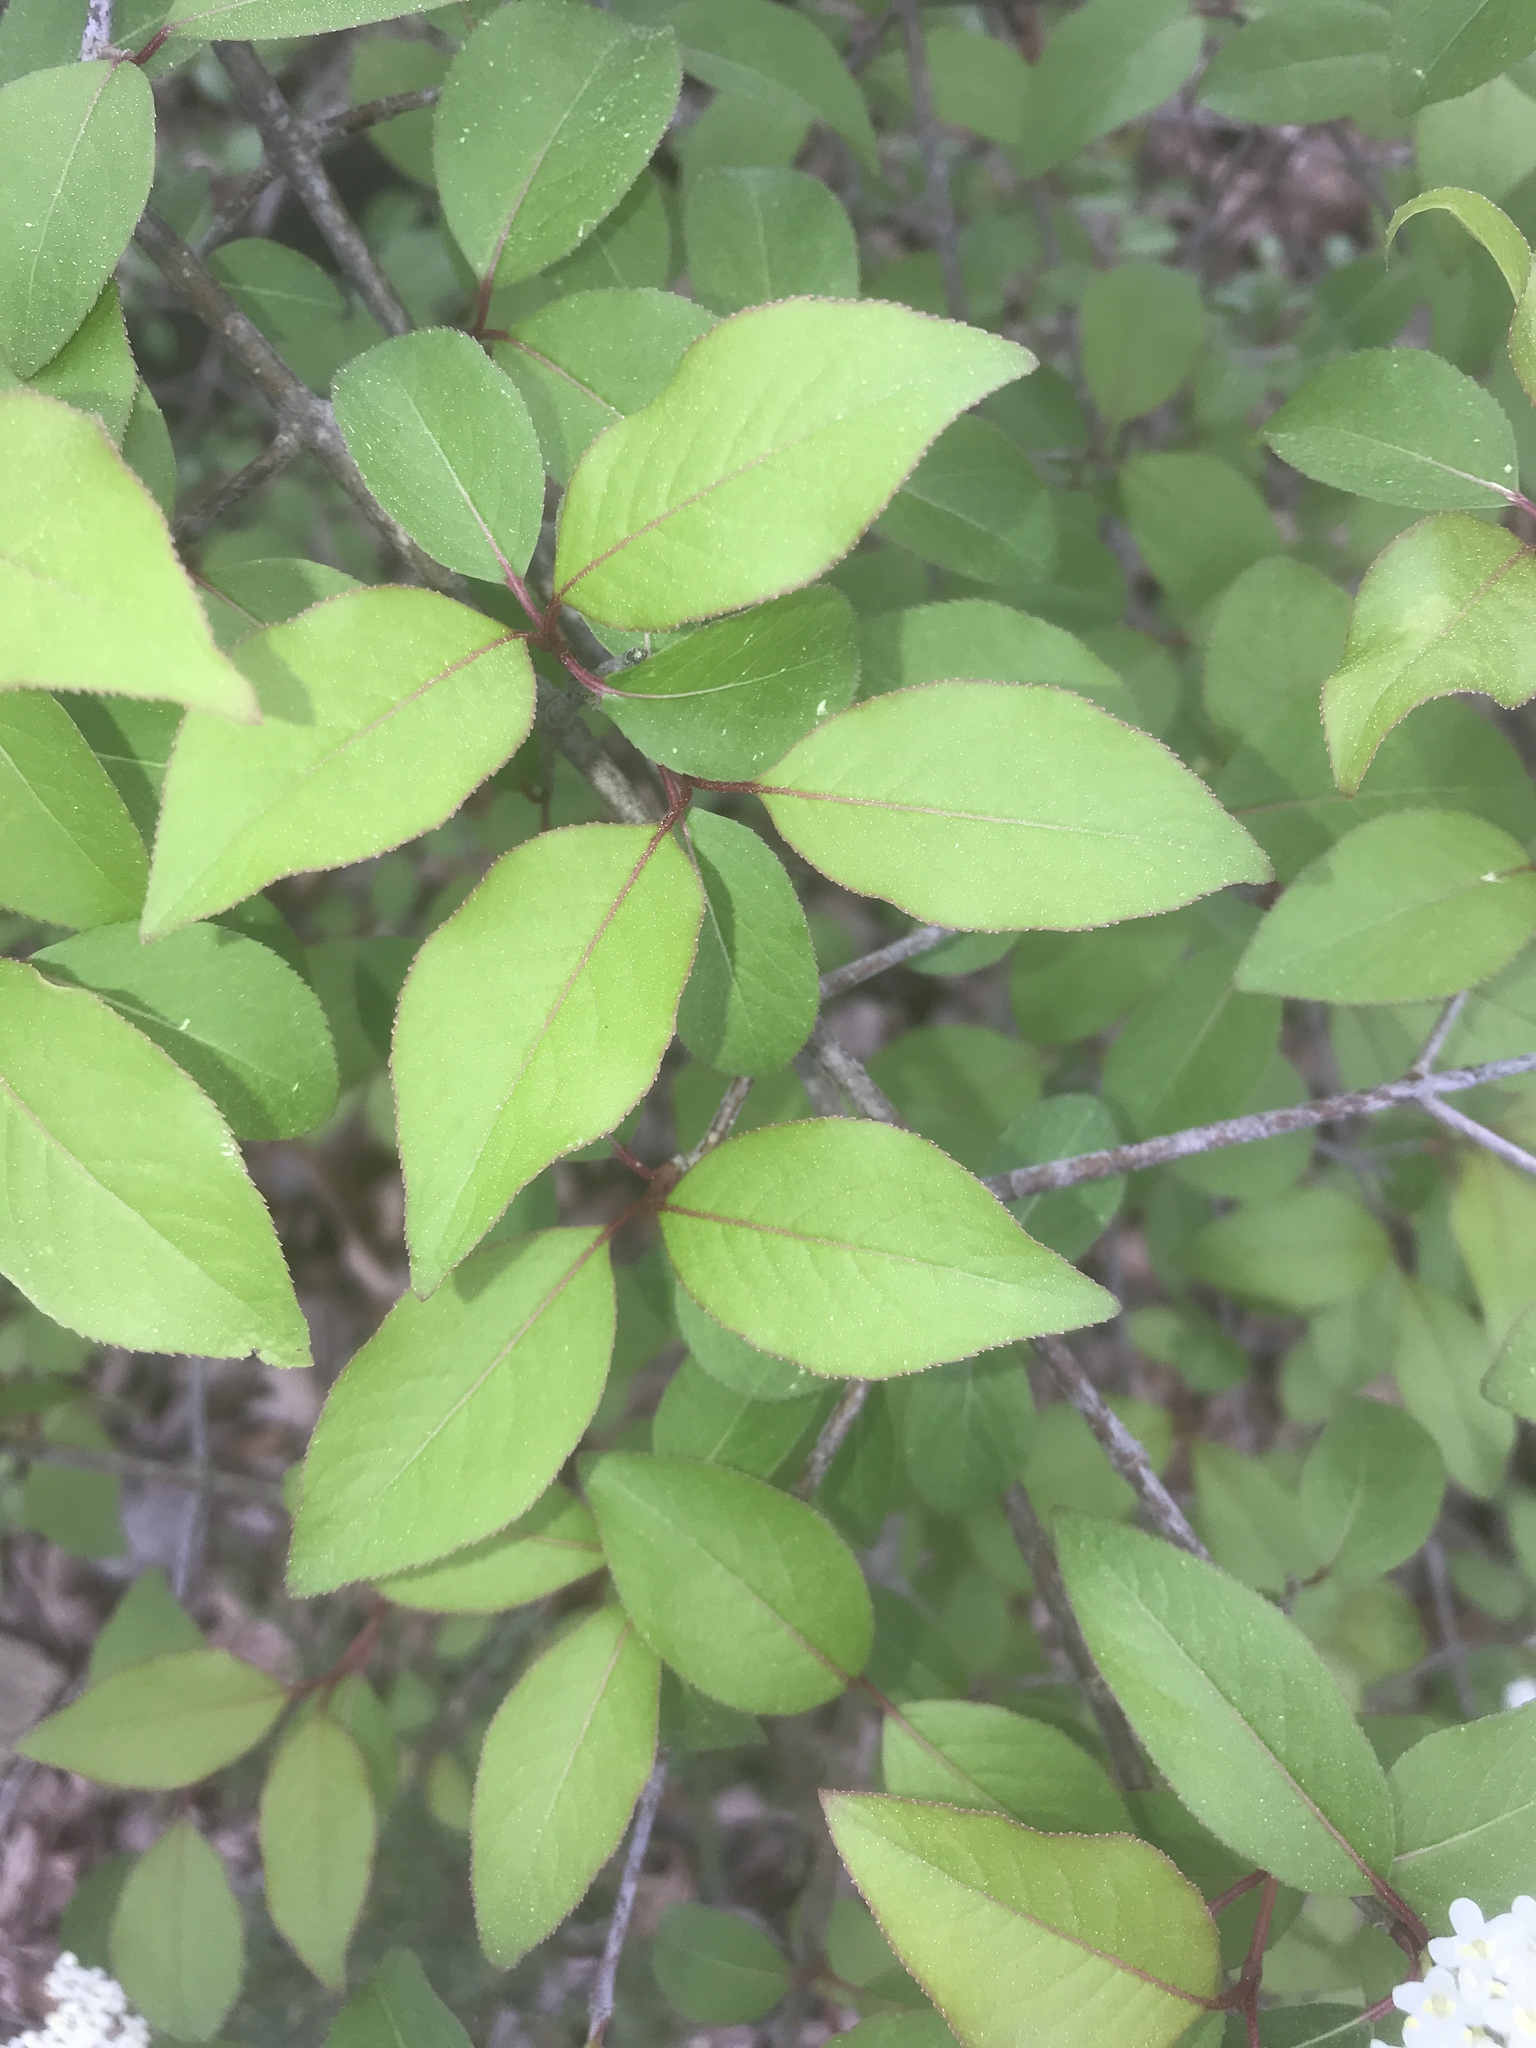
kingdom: Plantae
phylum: Tracheophyta
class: Magnoliopsida
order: Dipsacales
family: Viburnaceae
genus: Viburnum
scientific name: Viburnum prunifolium
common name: Black haw
